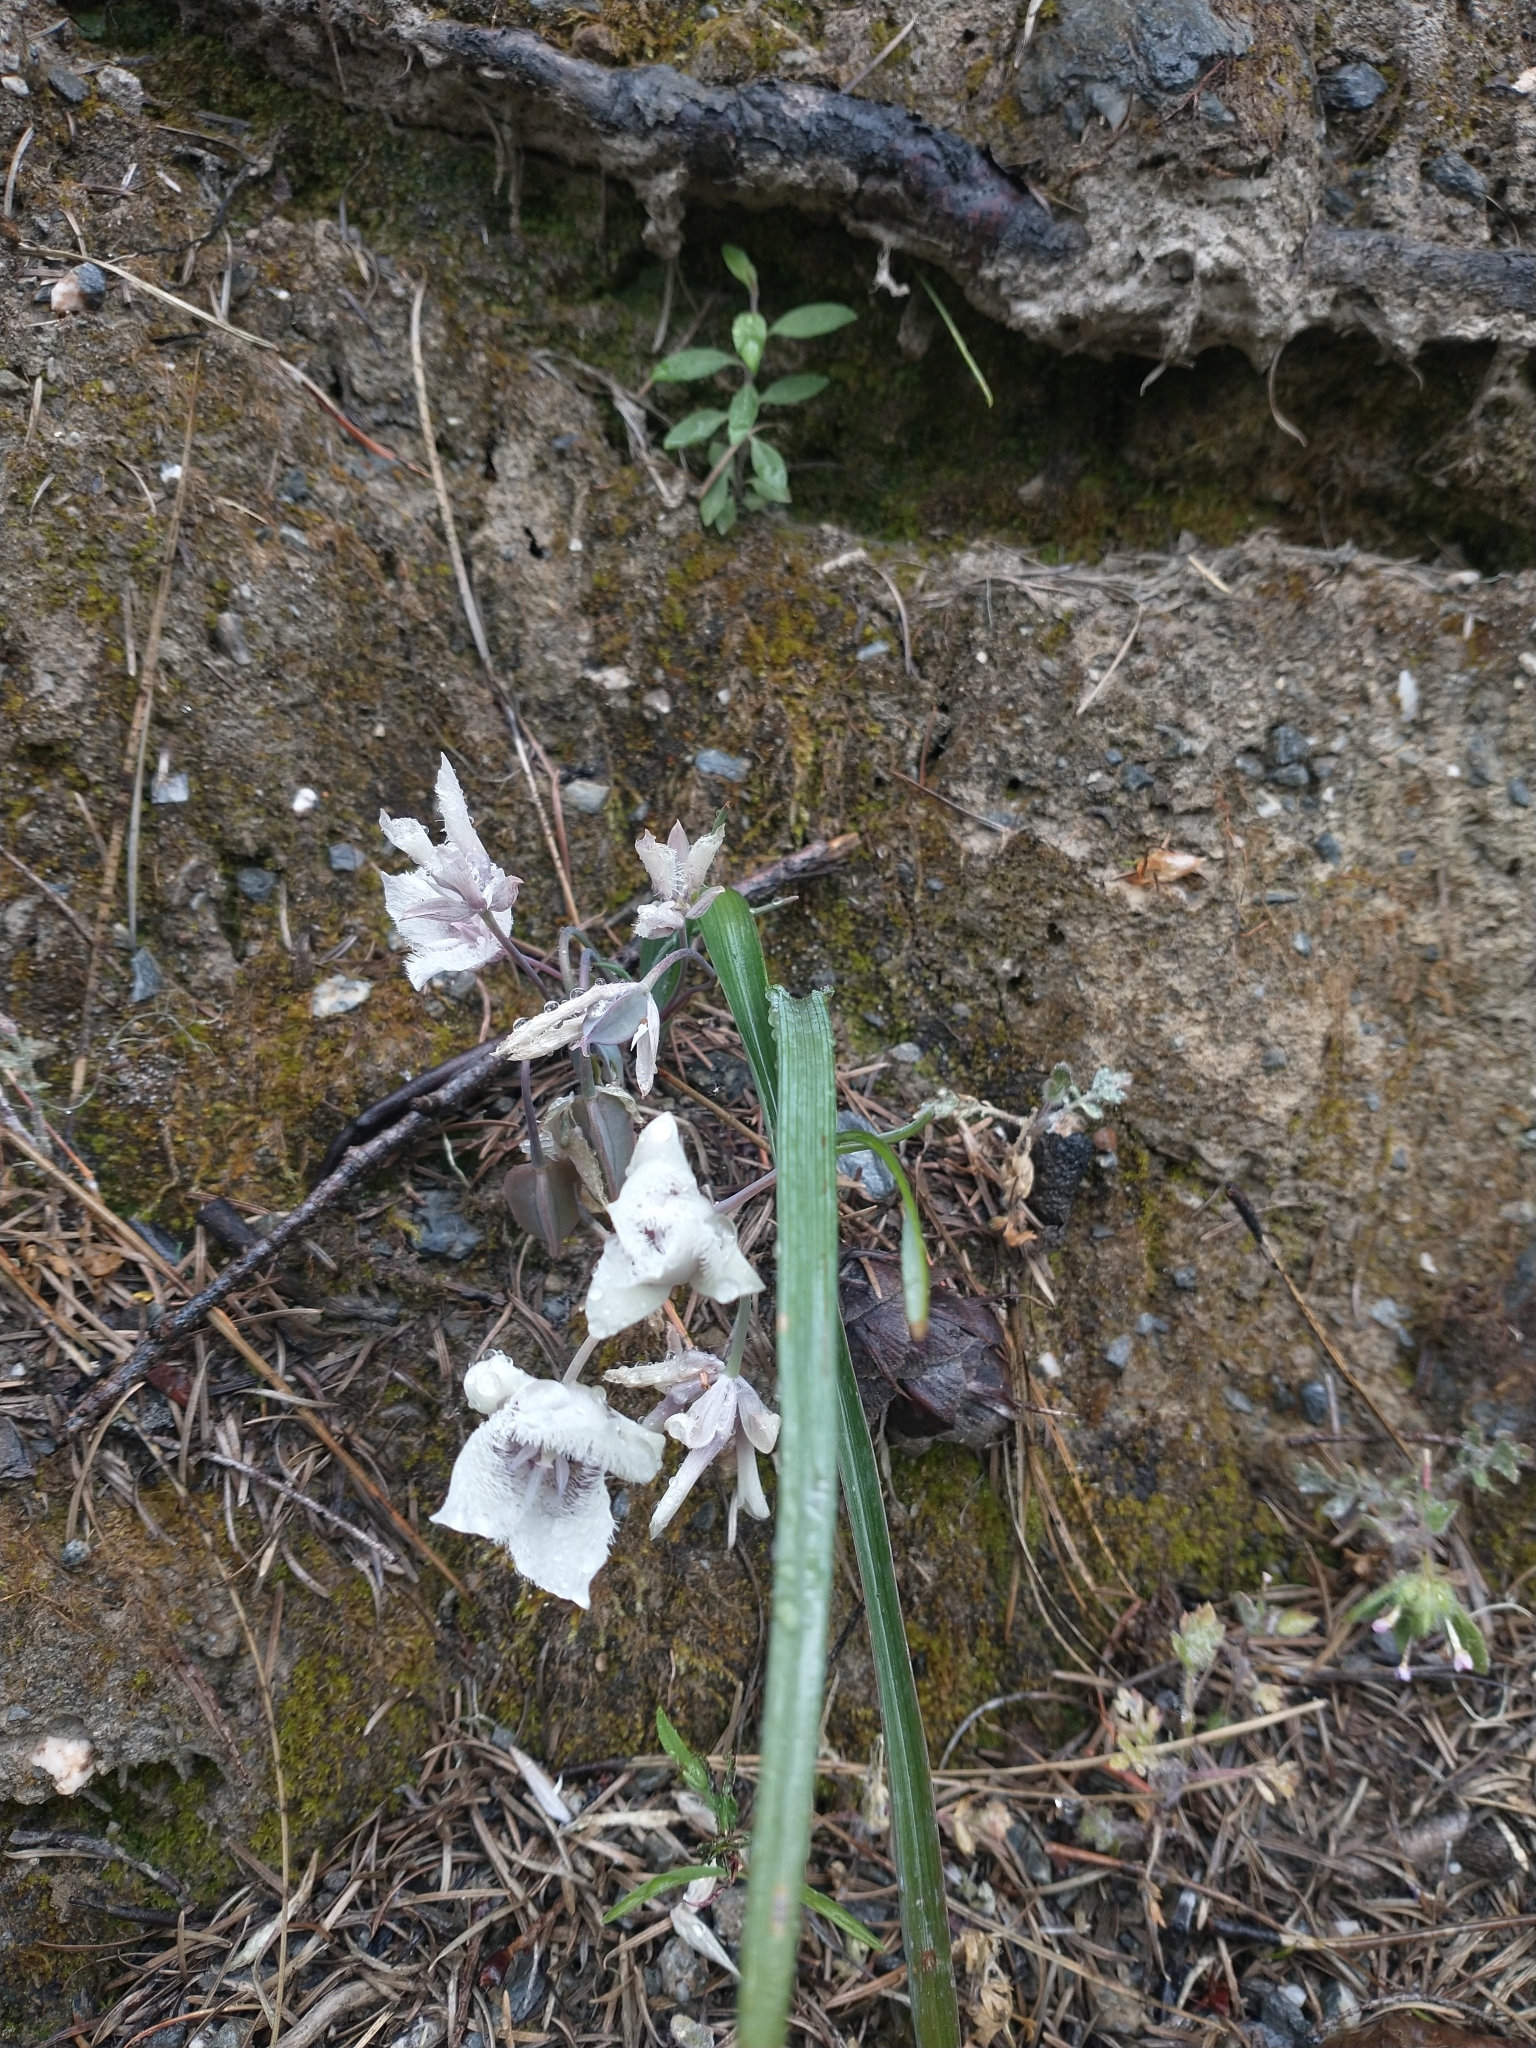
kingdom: Plantae
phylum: Tracheophyta
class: Liliopsida
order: Liliales
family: Liliaceae
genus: Calochortus
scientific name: Calochortus tolmiei
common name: Pussy-ears
